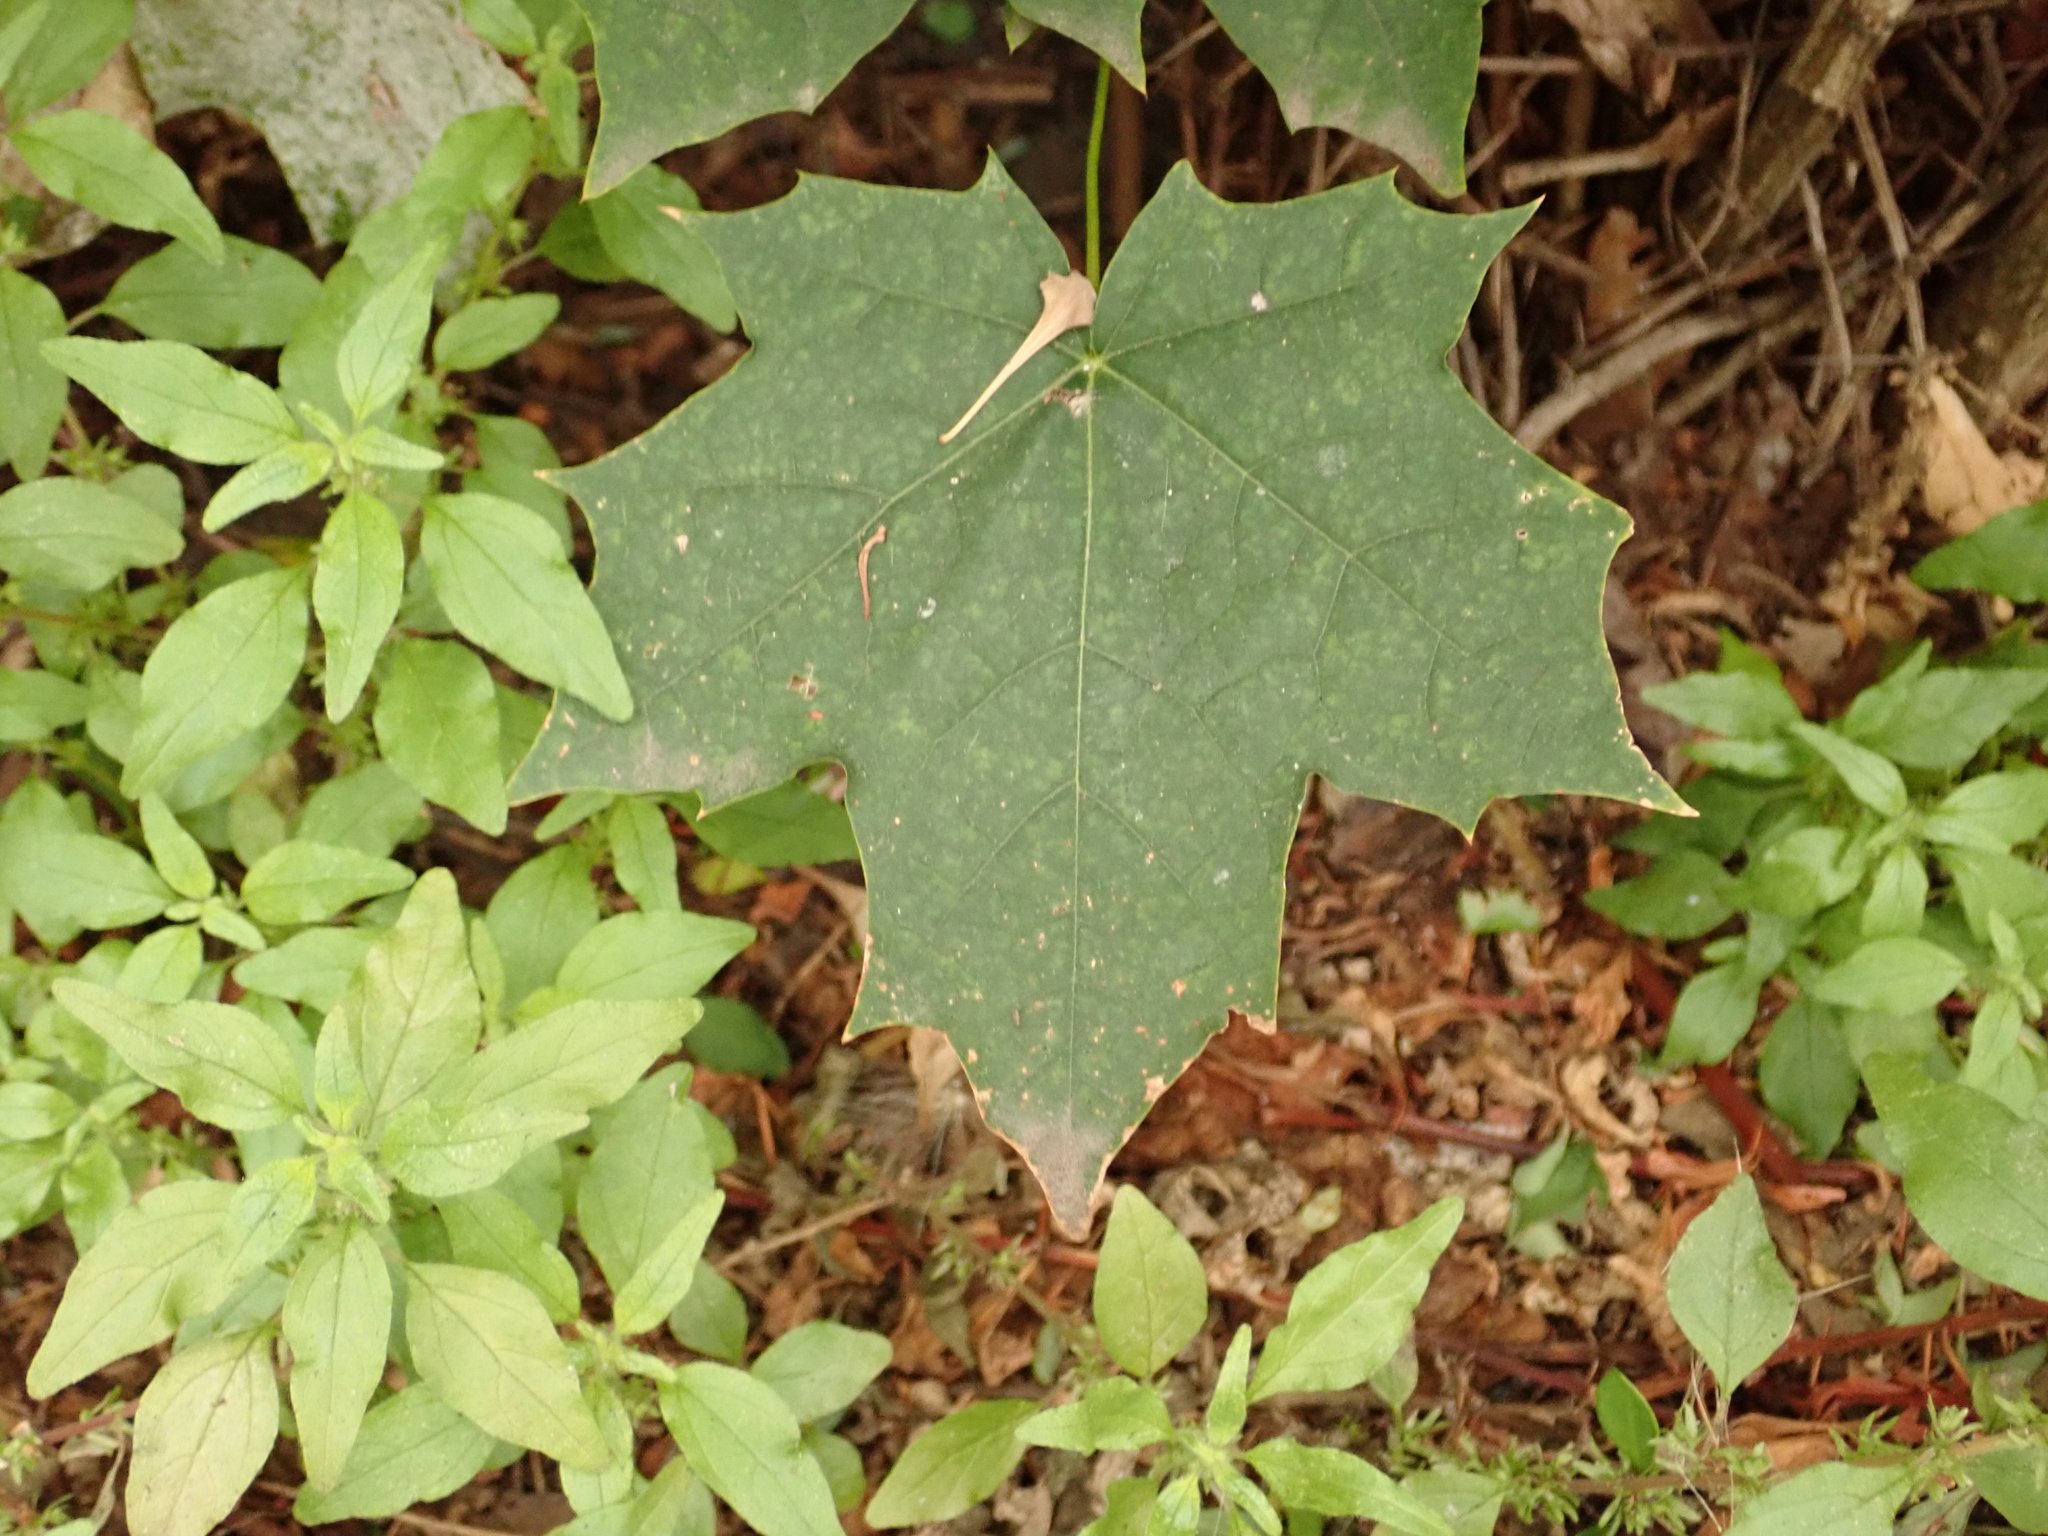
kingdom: Plantae
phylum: Tracheophyta
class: Magnoliopsida
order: Sapindales
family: Sapindaceae
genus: Acer
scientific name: Acer platanoides
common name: Norway maple
